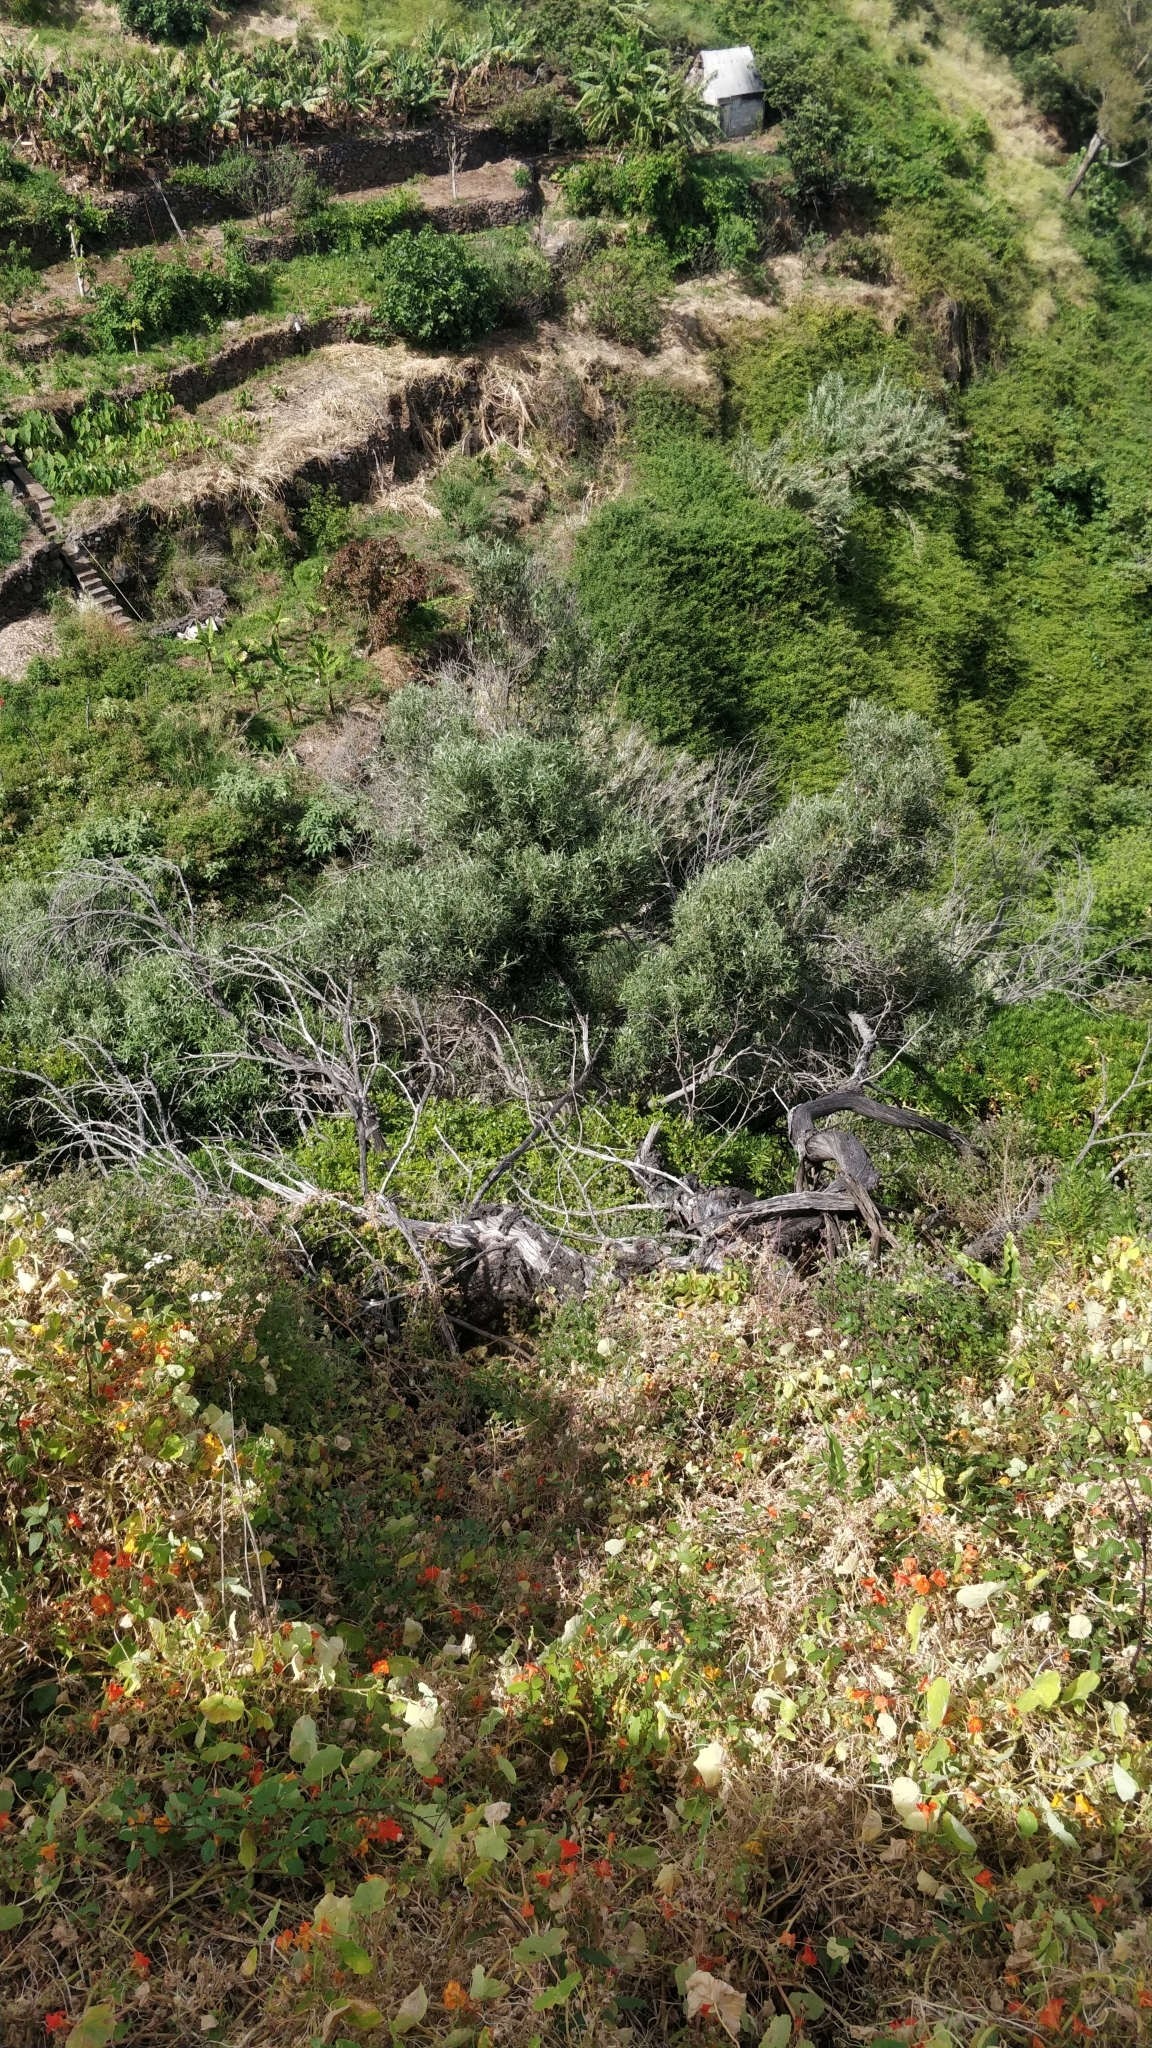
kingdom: Plantae
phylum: Tracheophyta
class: Magnoliopsida
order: Lamiales
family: Oleaceae
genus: Olea
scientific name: Olea europaea
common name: Olive
